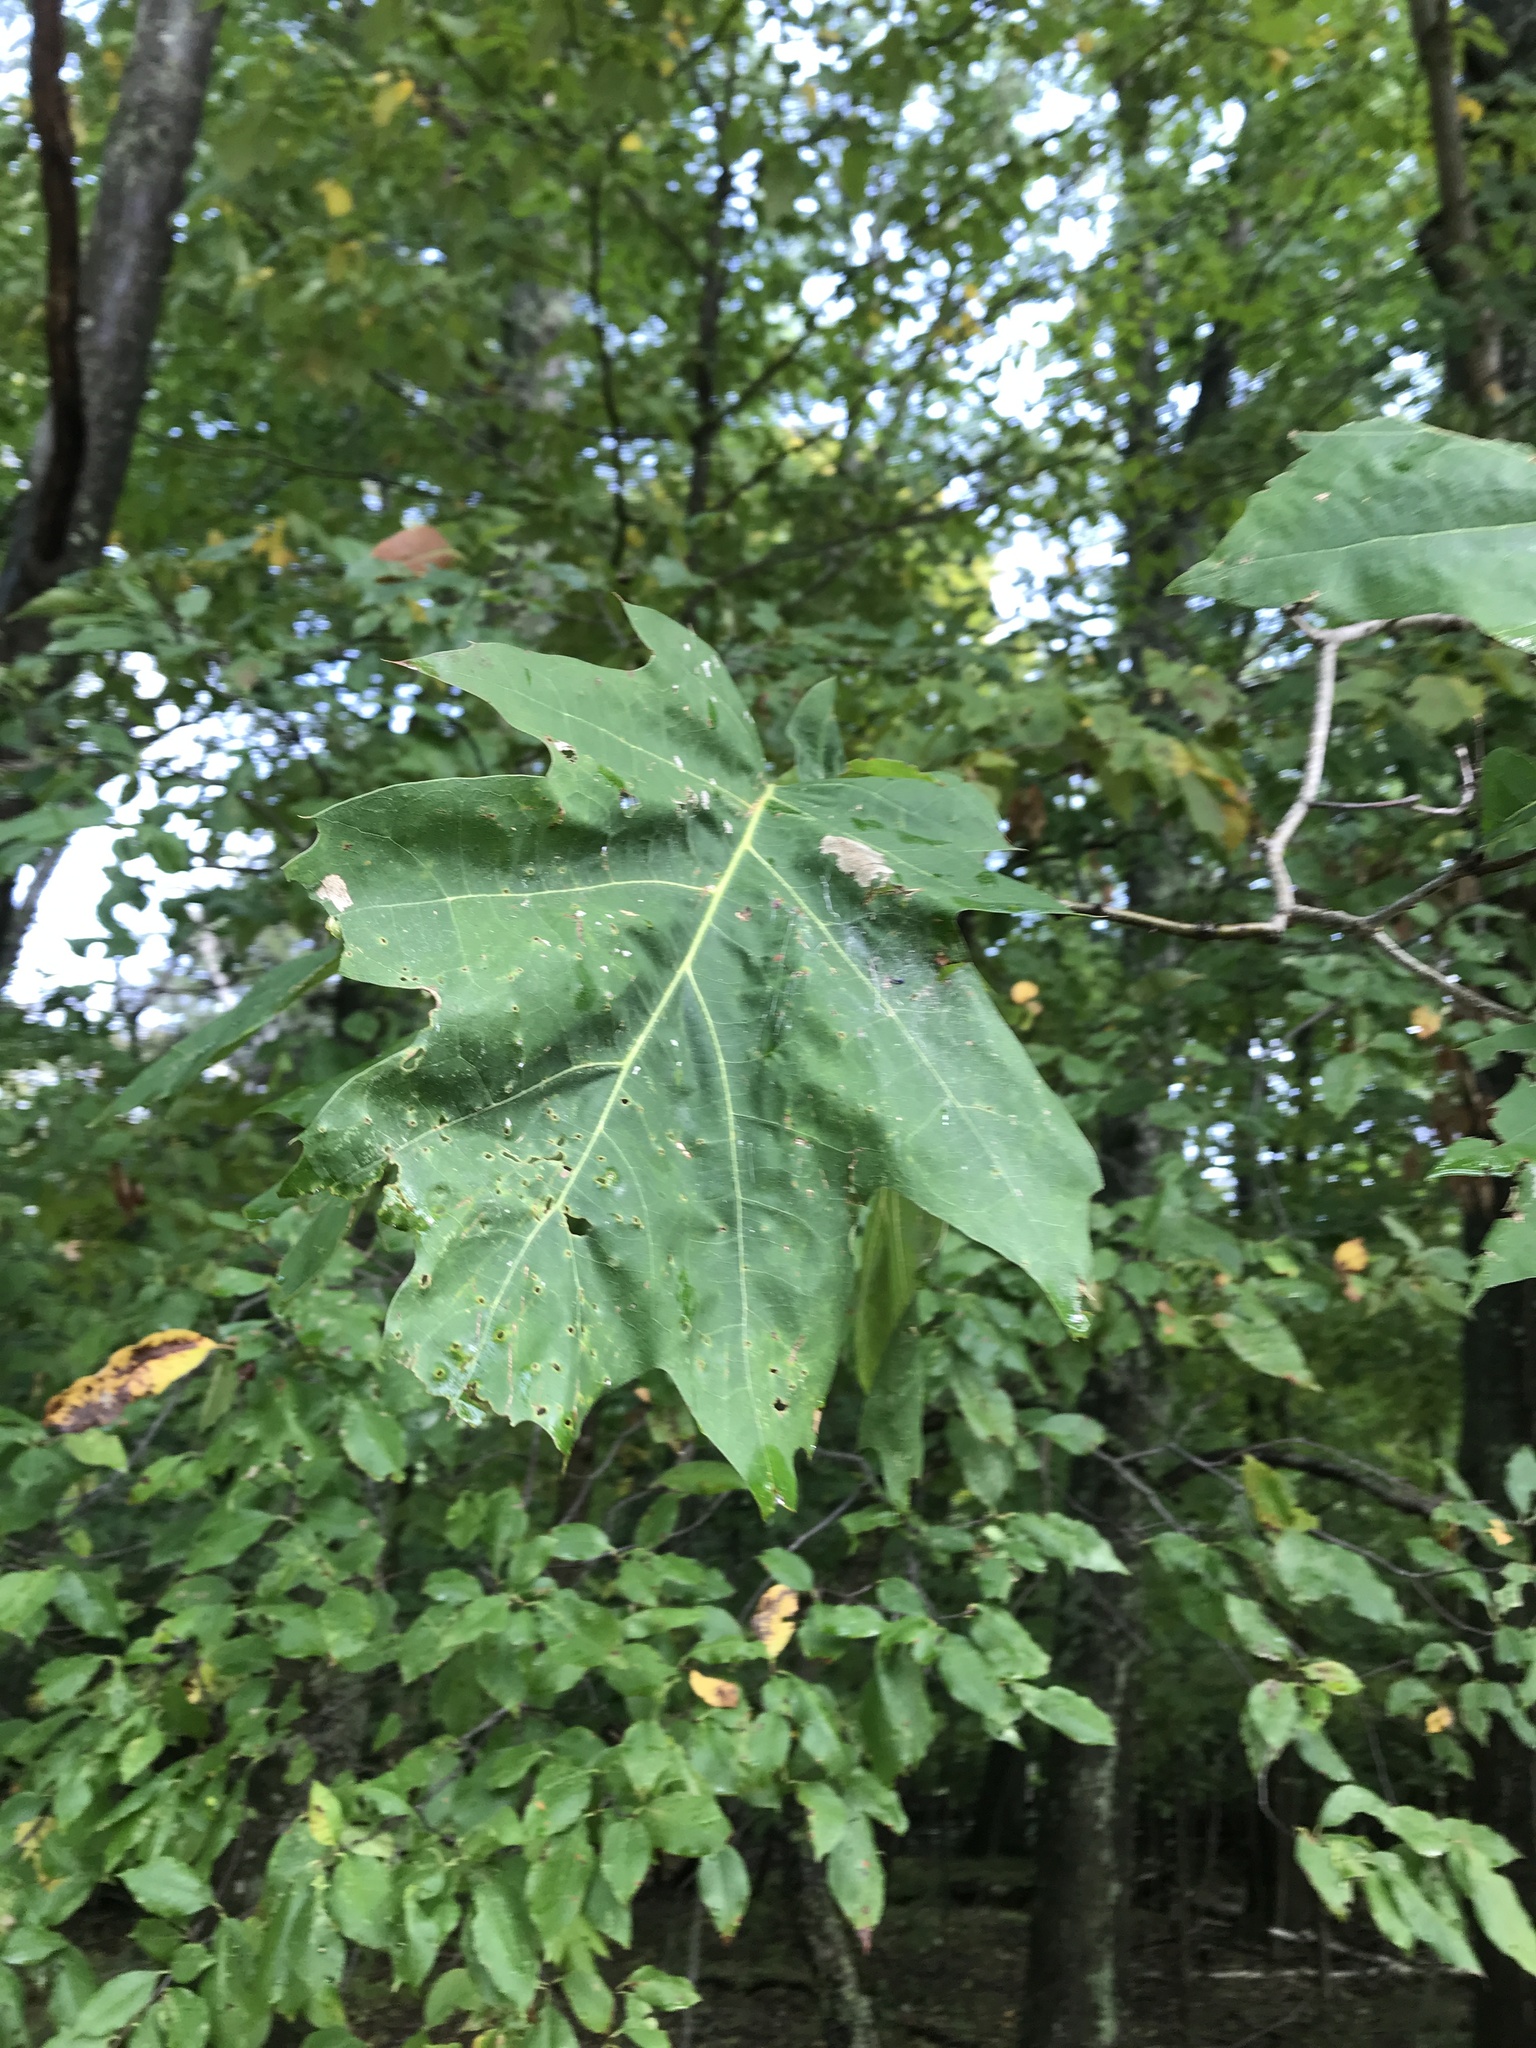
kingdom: Plantae
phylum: Tracheophyta
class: Magnoliopsida
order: Fagales
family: Fagaceae
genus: Quercus
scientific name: Quercus rubra
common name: Red oak
